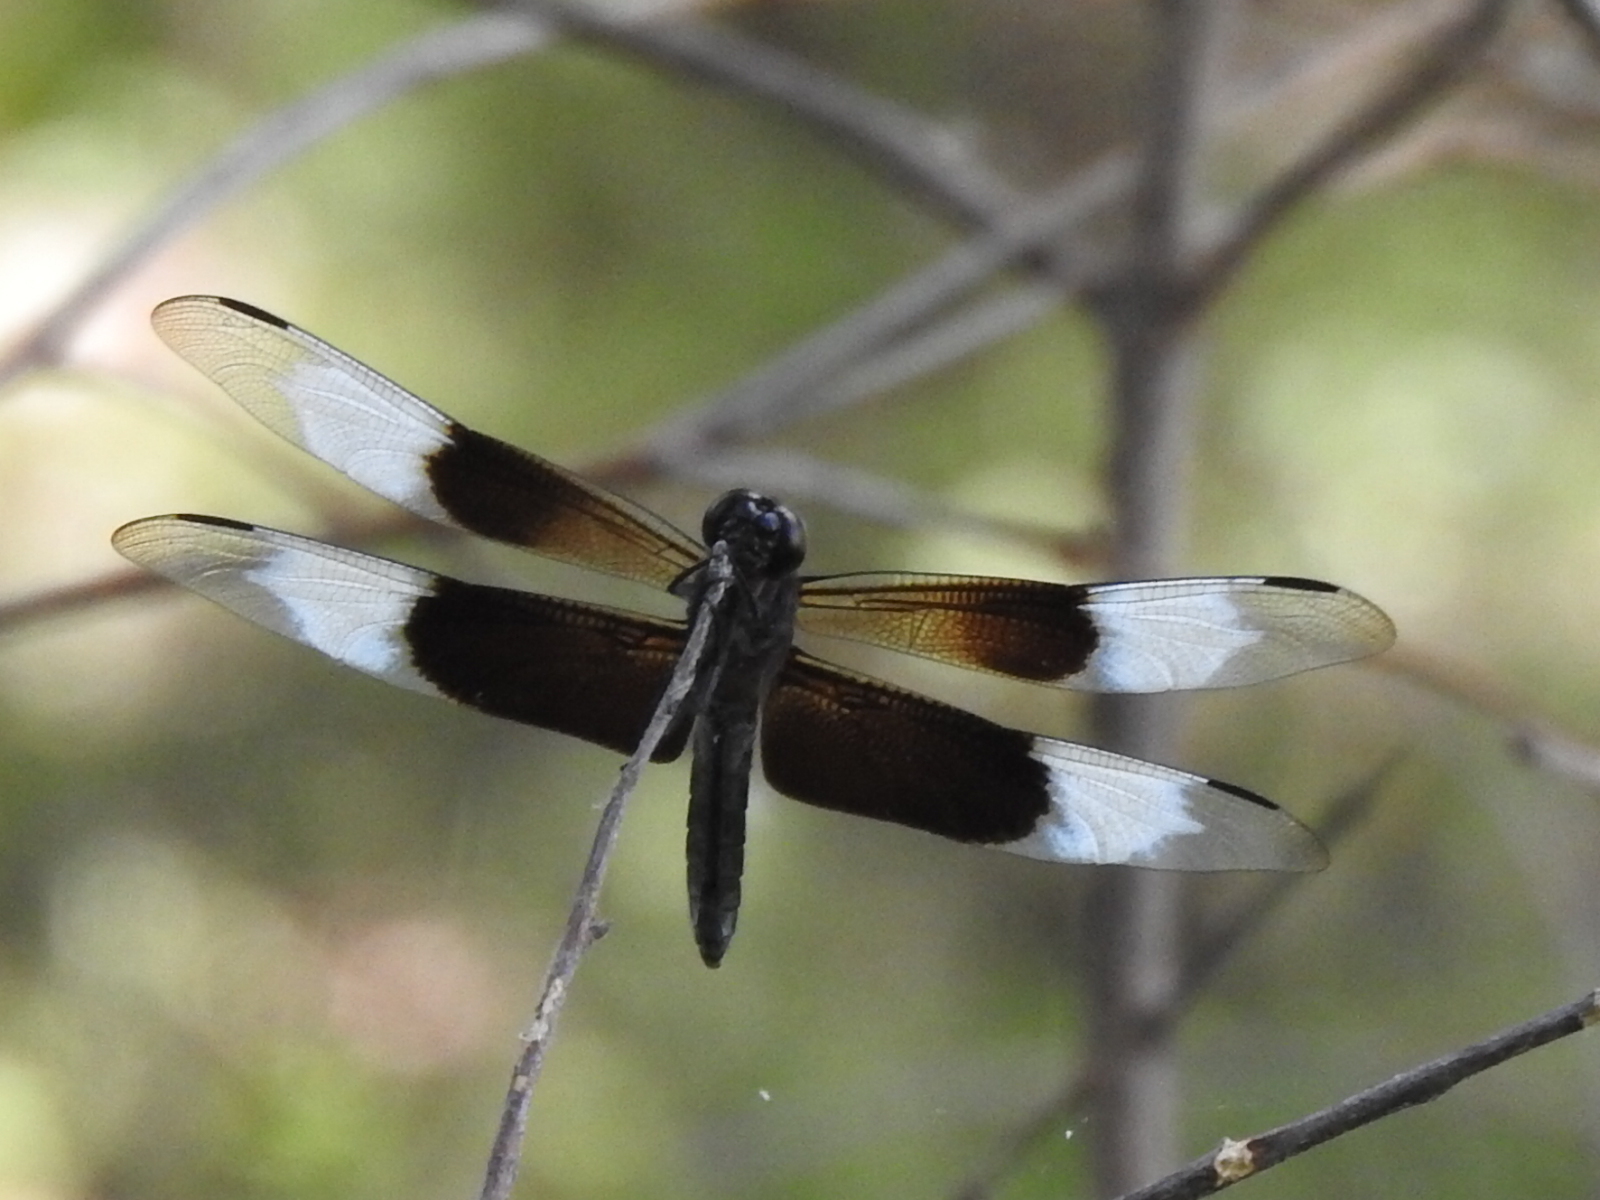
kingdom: Animalia
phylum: Arthropoda
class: Insecta
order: Odonata
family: Libellulidae
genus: Libellula
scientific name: Libellula luctuosa
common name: Widow skimmer
